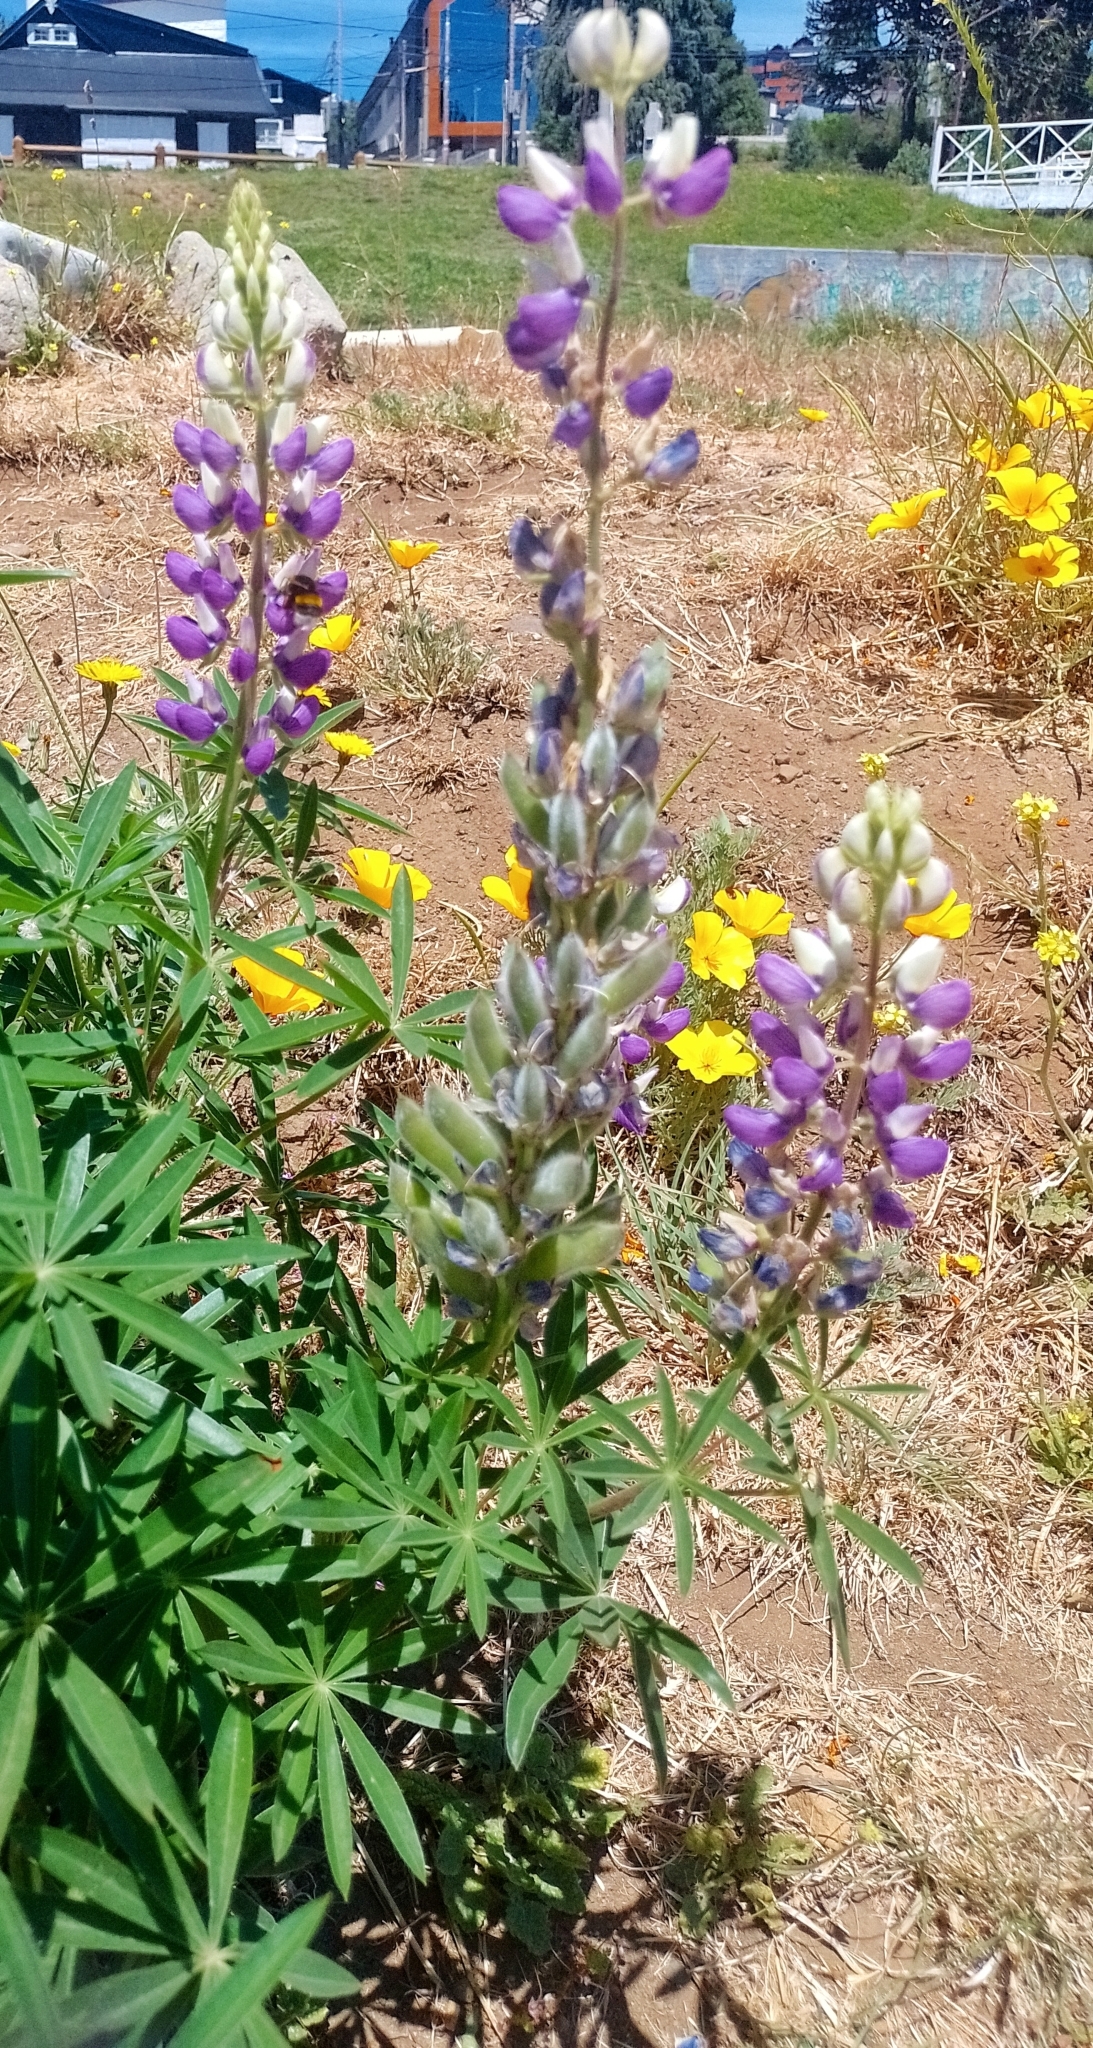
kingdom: Plantae
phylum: Tracheophyta
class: Magnoliopsida
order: Fabales
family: Fabaceae
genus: Lupinus
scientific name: Lupinus polyphyllus
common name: Garden lupin
